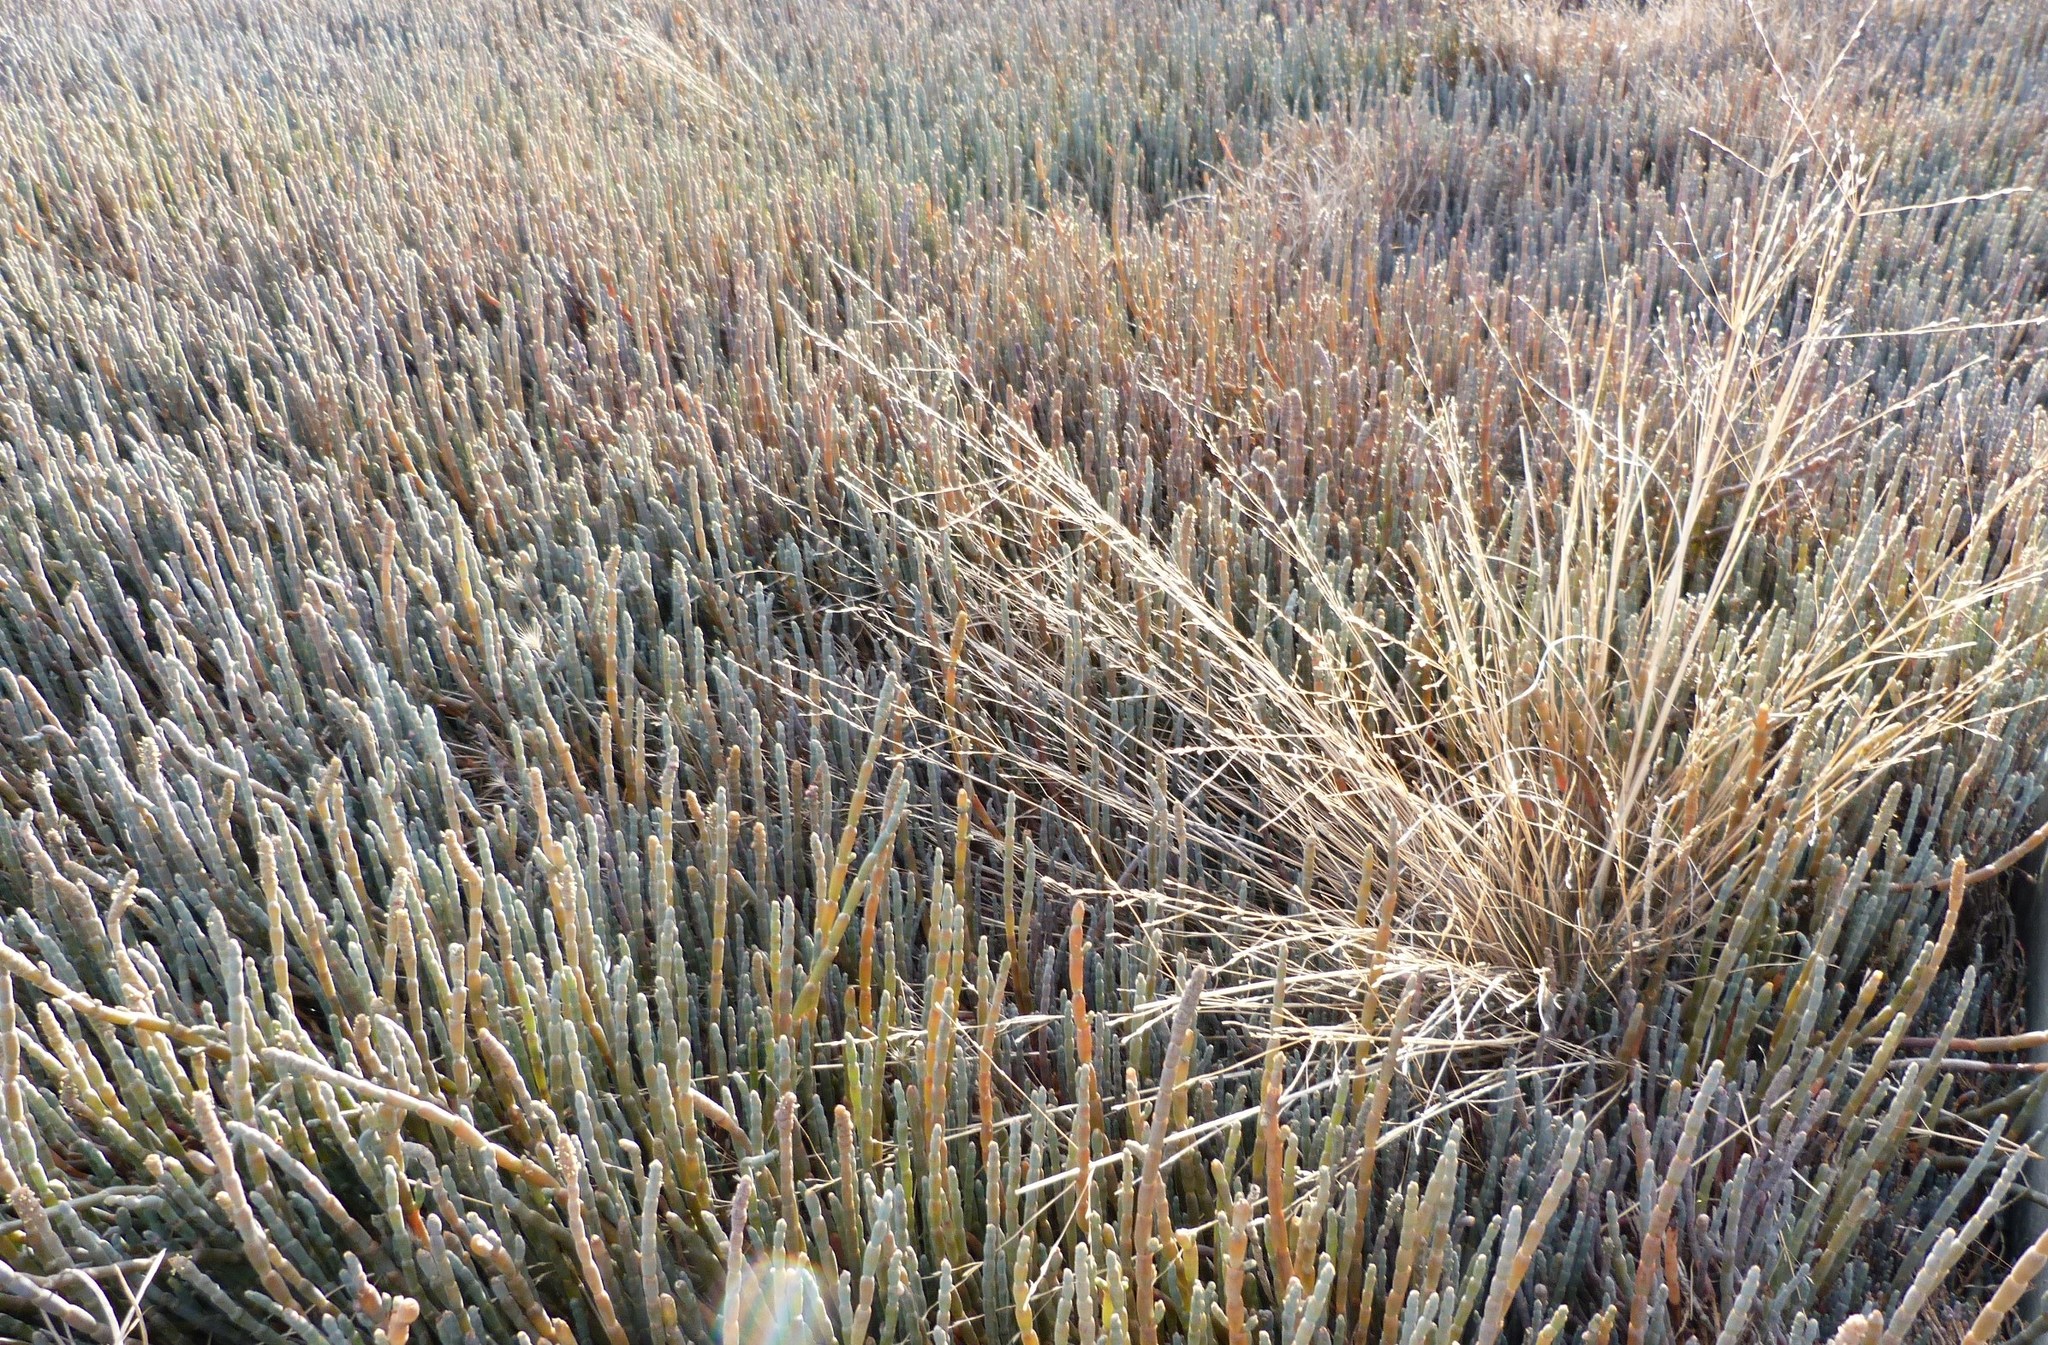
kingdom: Plantae
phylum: Tracheophyta
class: Liliopsida
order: Poales
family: Poaceae
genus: Puccinellia
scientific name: Puccinellia stricta
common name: Australian saltmarsh grass
